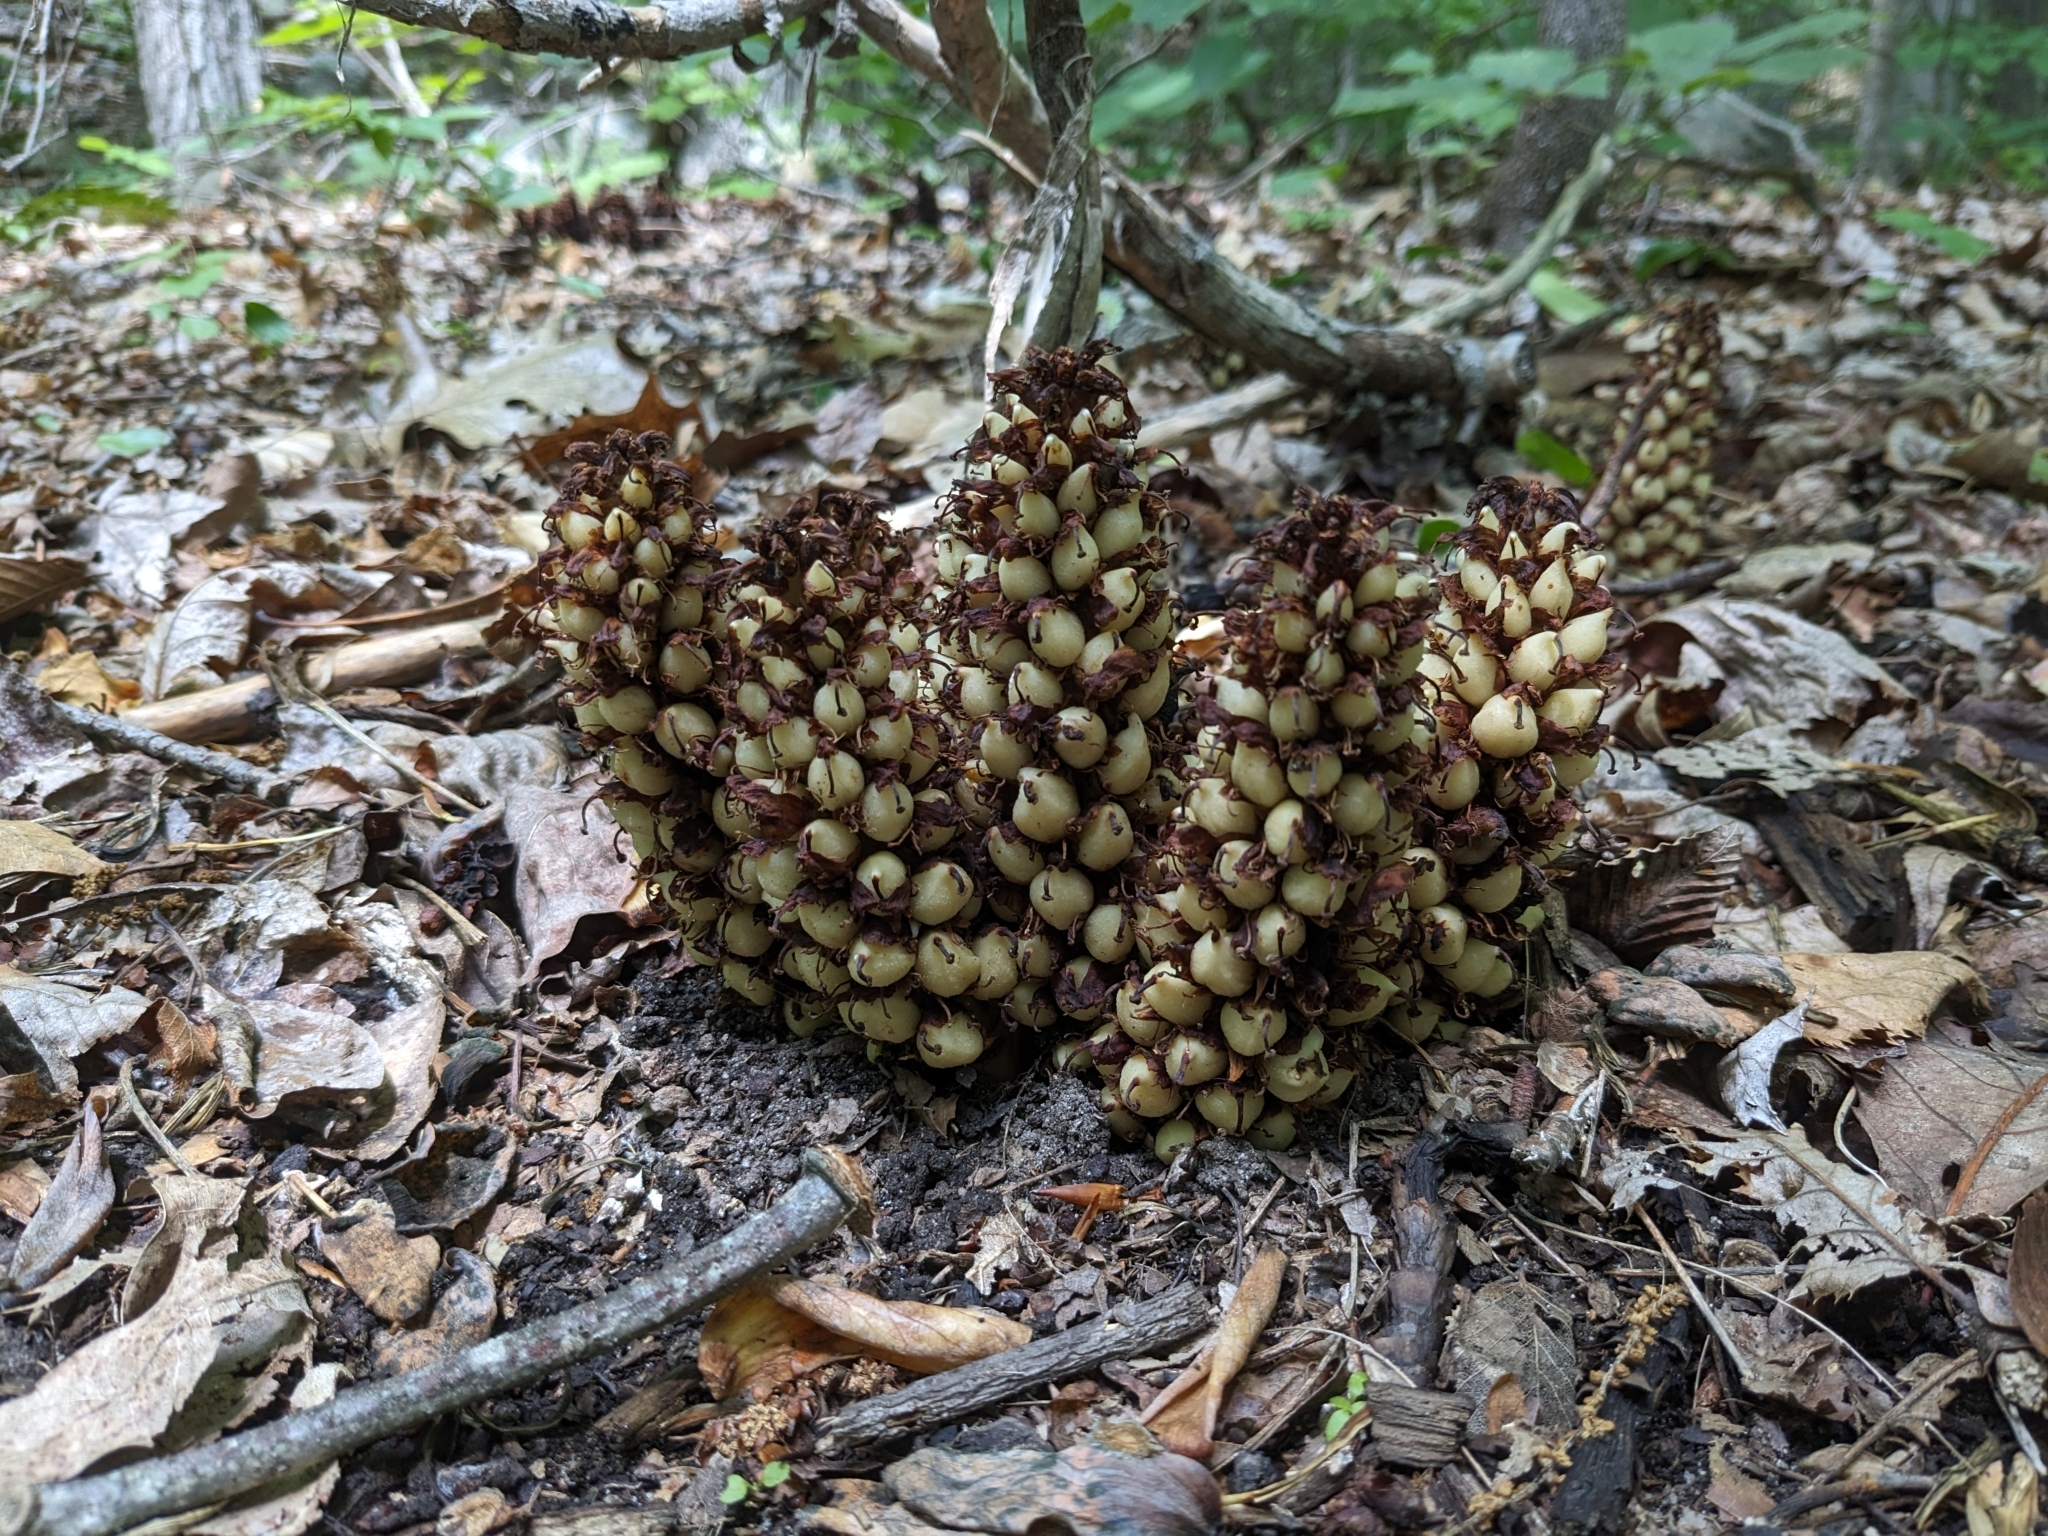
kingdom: Plantae
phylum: Tracheophyta
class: Magnoliopsida
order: Lamiales
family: Orobanchaceae
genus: Conopholis
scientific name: Conopholis americana
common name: American cancer-root
